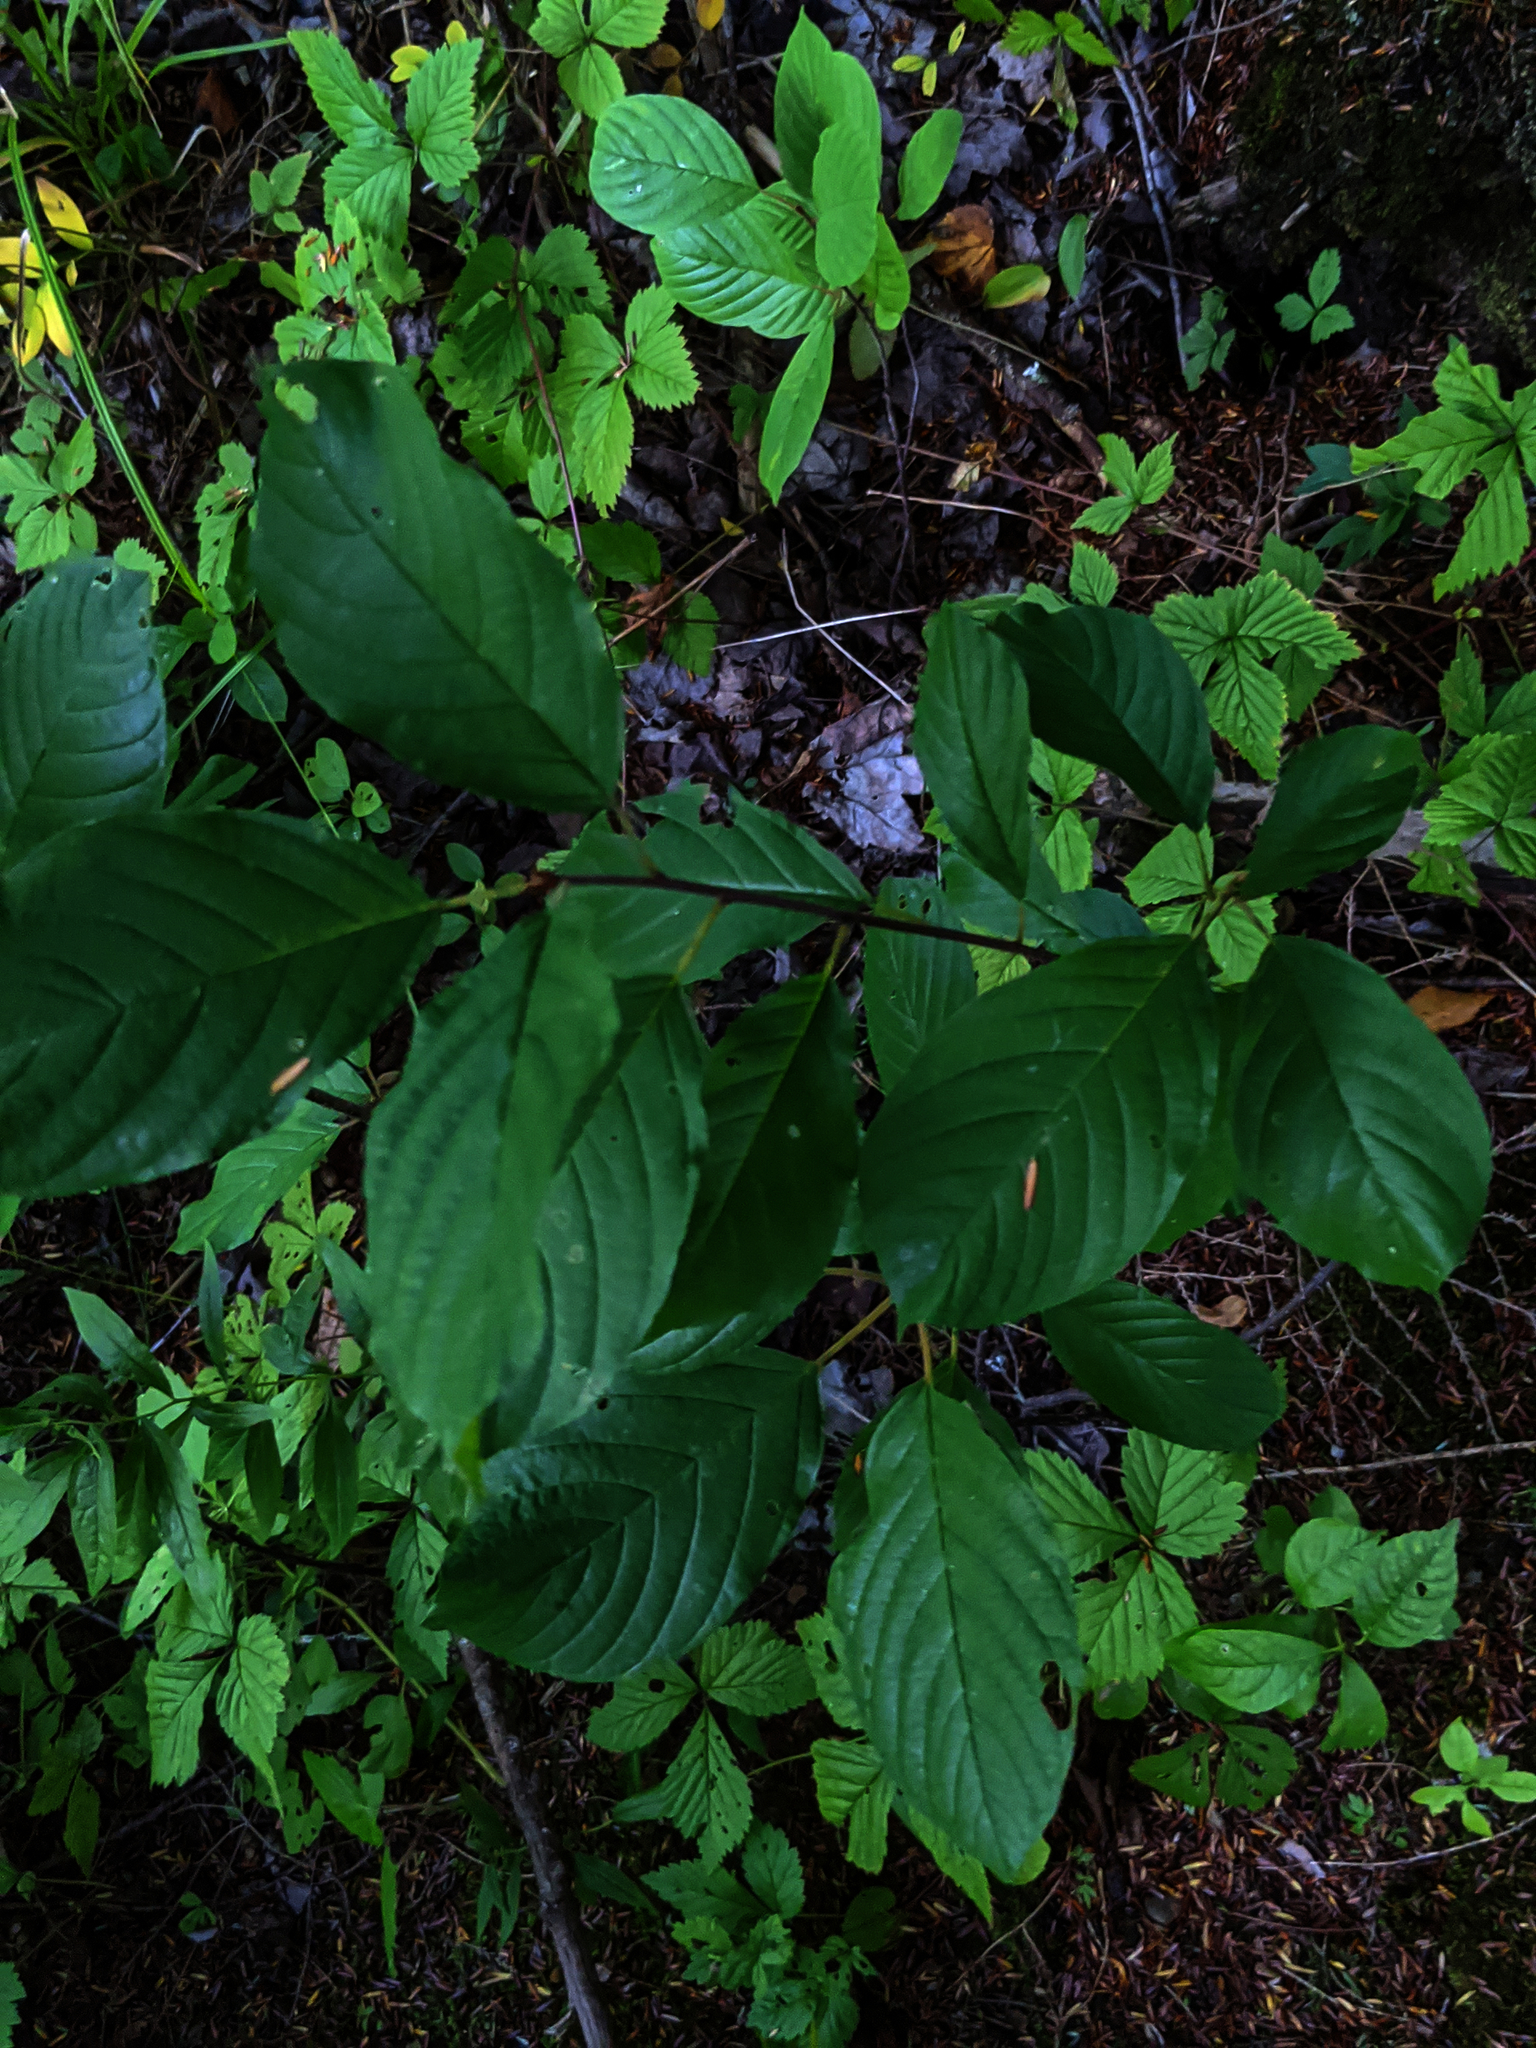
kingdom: Plantae
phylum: Tracheophyta
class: Magnoliopsida
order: Rosales
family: Rhamnaceae
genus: Frangula
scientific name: Frangula alnus
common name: Alder buckthorn
